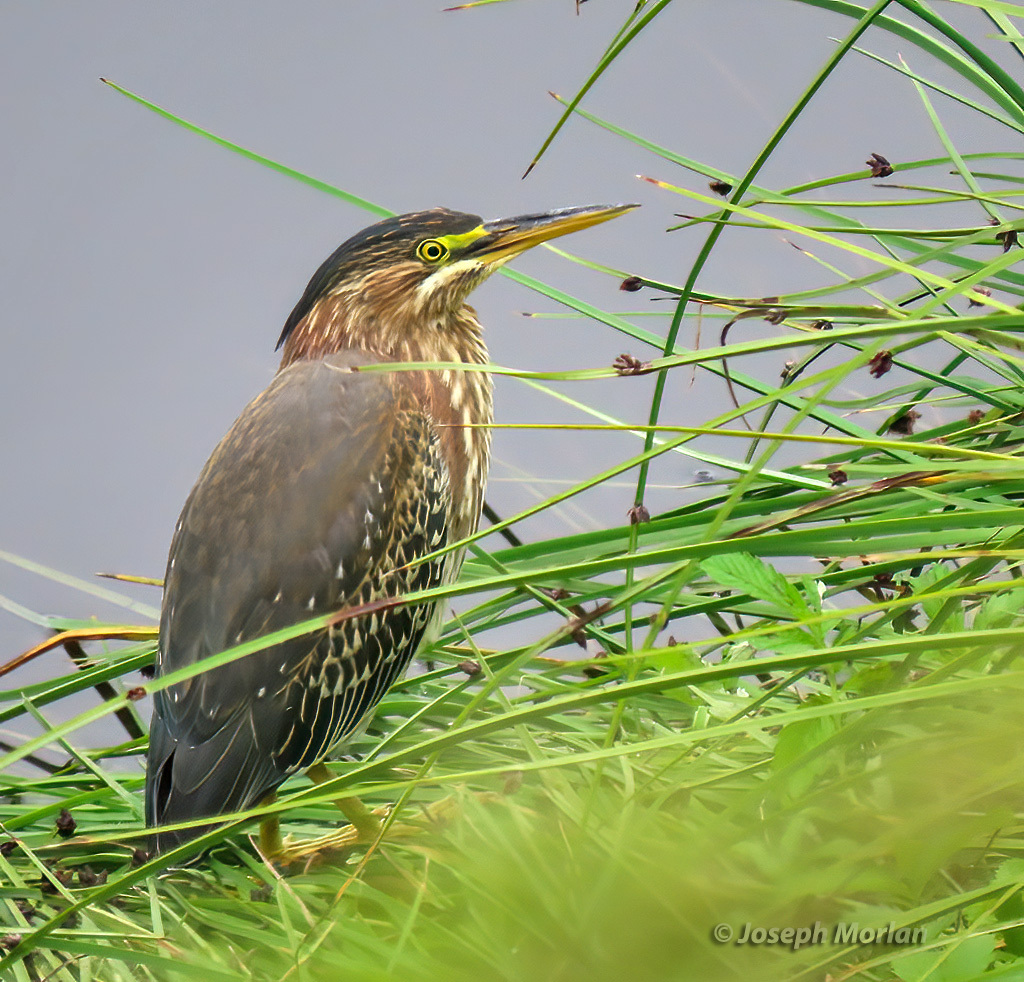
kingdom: Animalia
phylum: Chordata
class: Aves
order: Pelecaniformes
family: Ardeidae
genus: Butorides
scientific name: Butorides virescens
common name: Green heron
